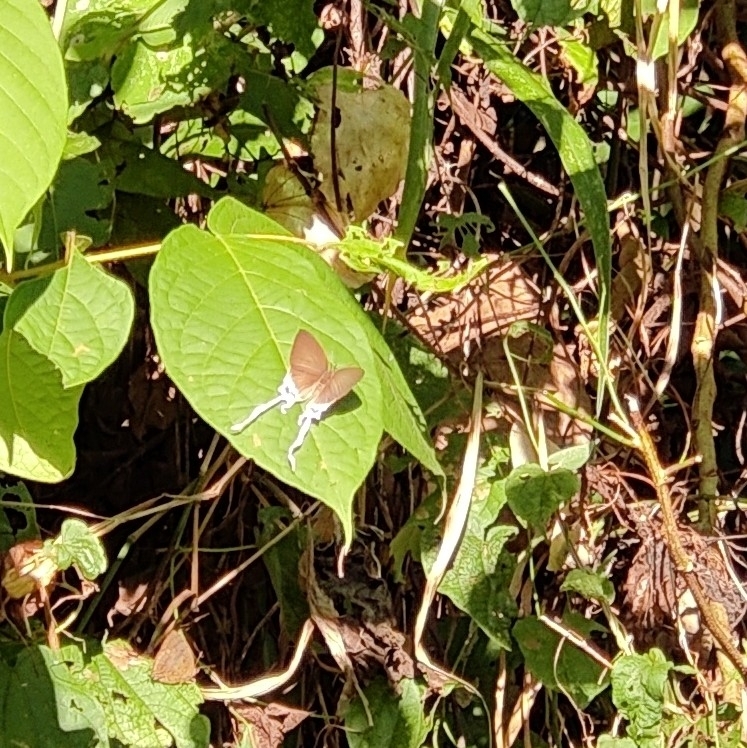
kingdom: Animalia
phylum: Arthropoda
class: Insecta
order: Lepidoptera
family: Lycaenidae
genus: Cheritra
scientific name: Cheritra freja
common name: Common imperial
